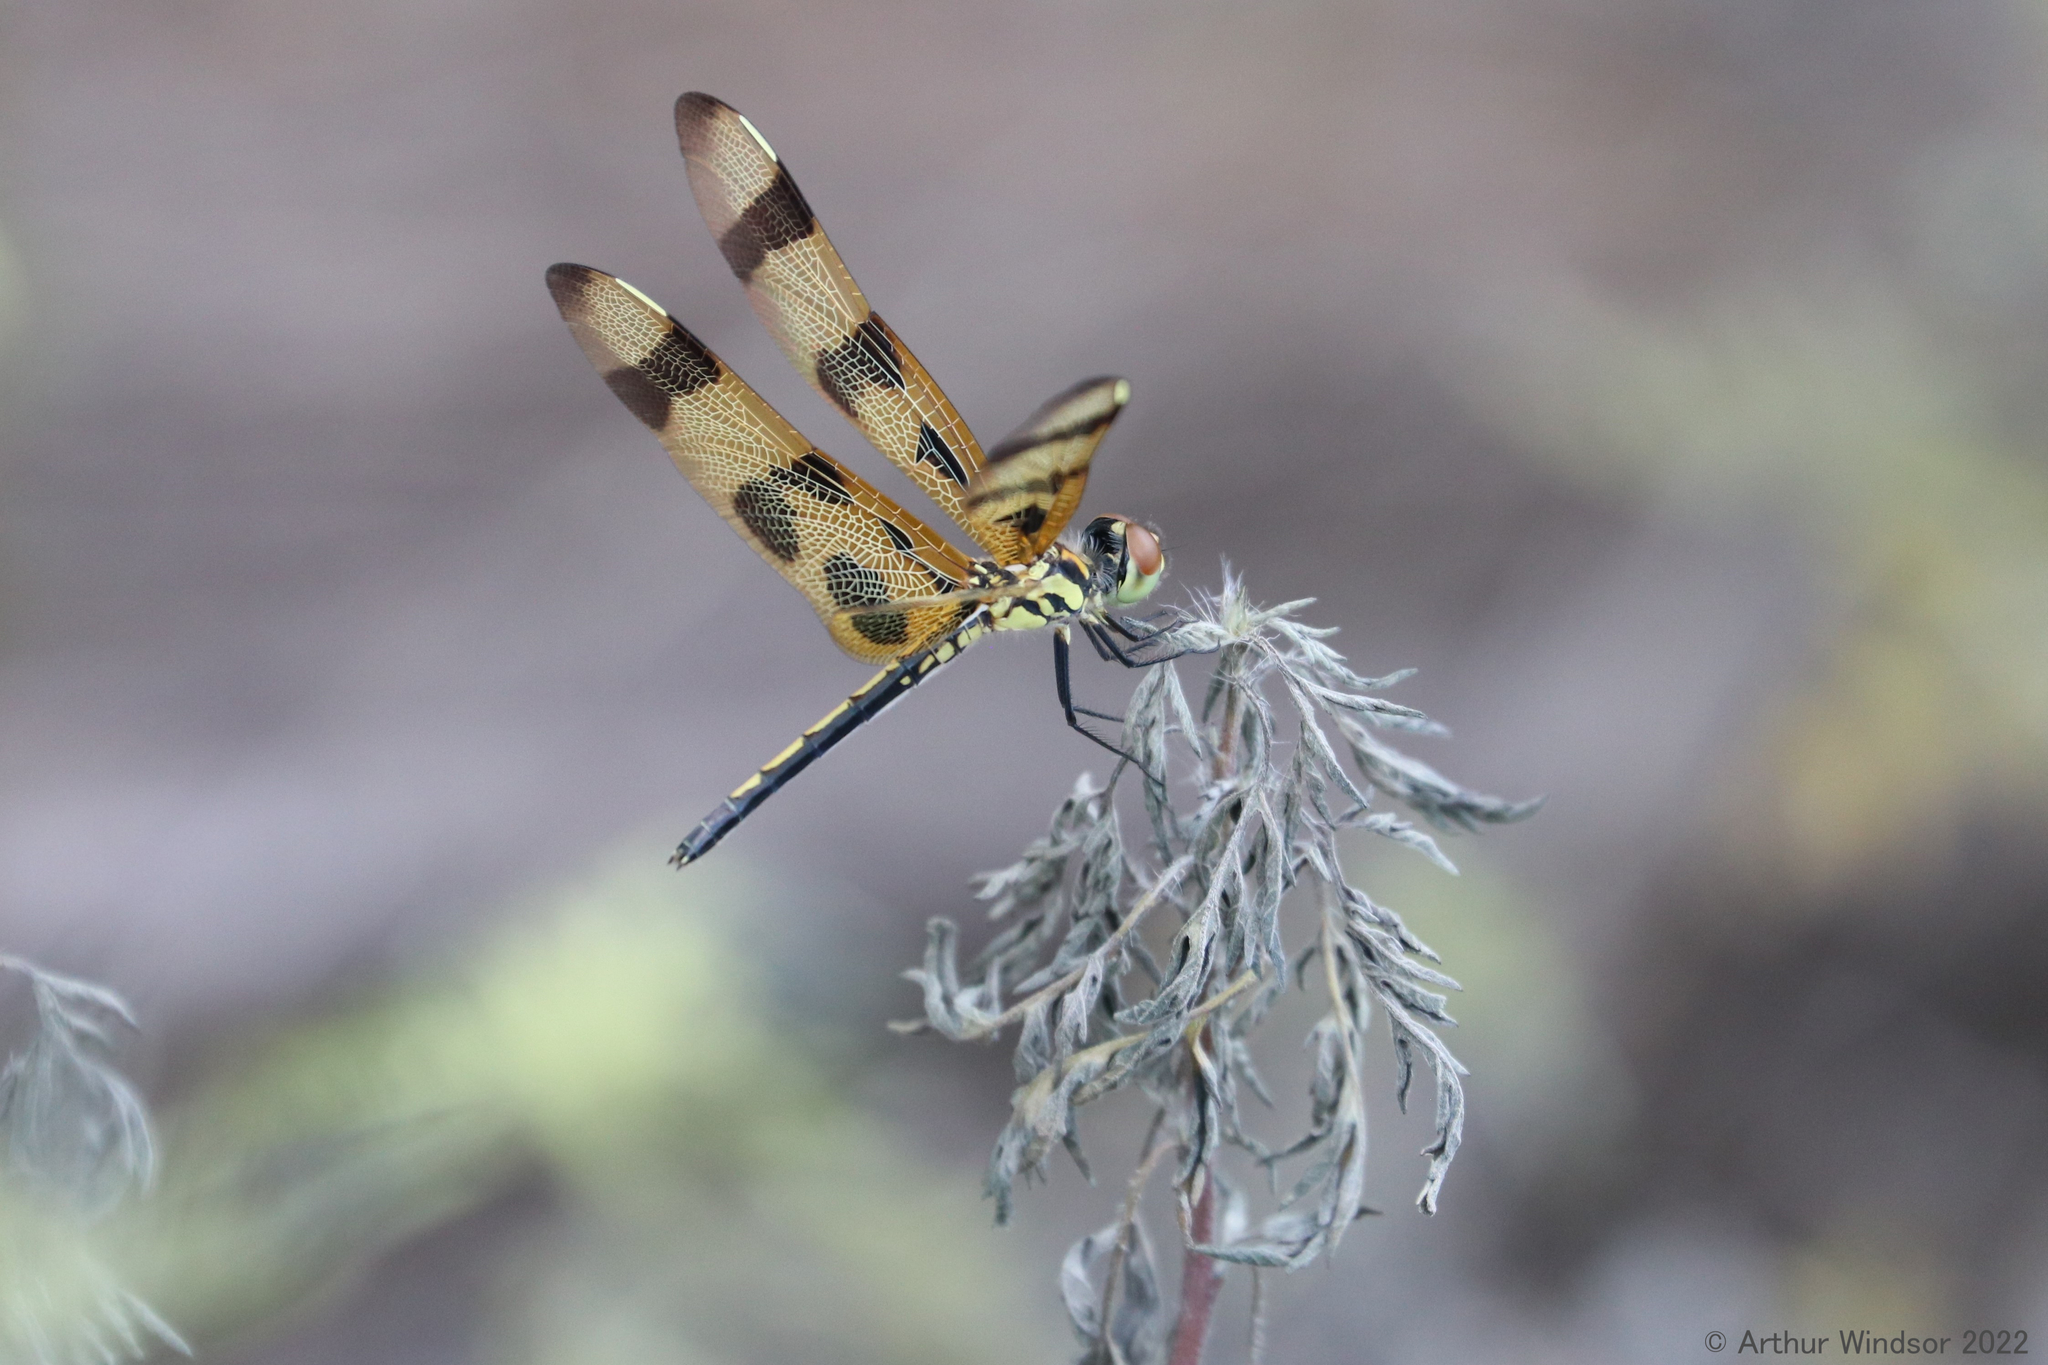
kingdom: Animalia
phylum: Arthropoda
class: Insecta
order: Odonata
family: Libellulidae
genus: Celithemis
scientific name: Celithemis eponina
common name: Halloween pennant
